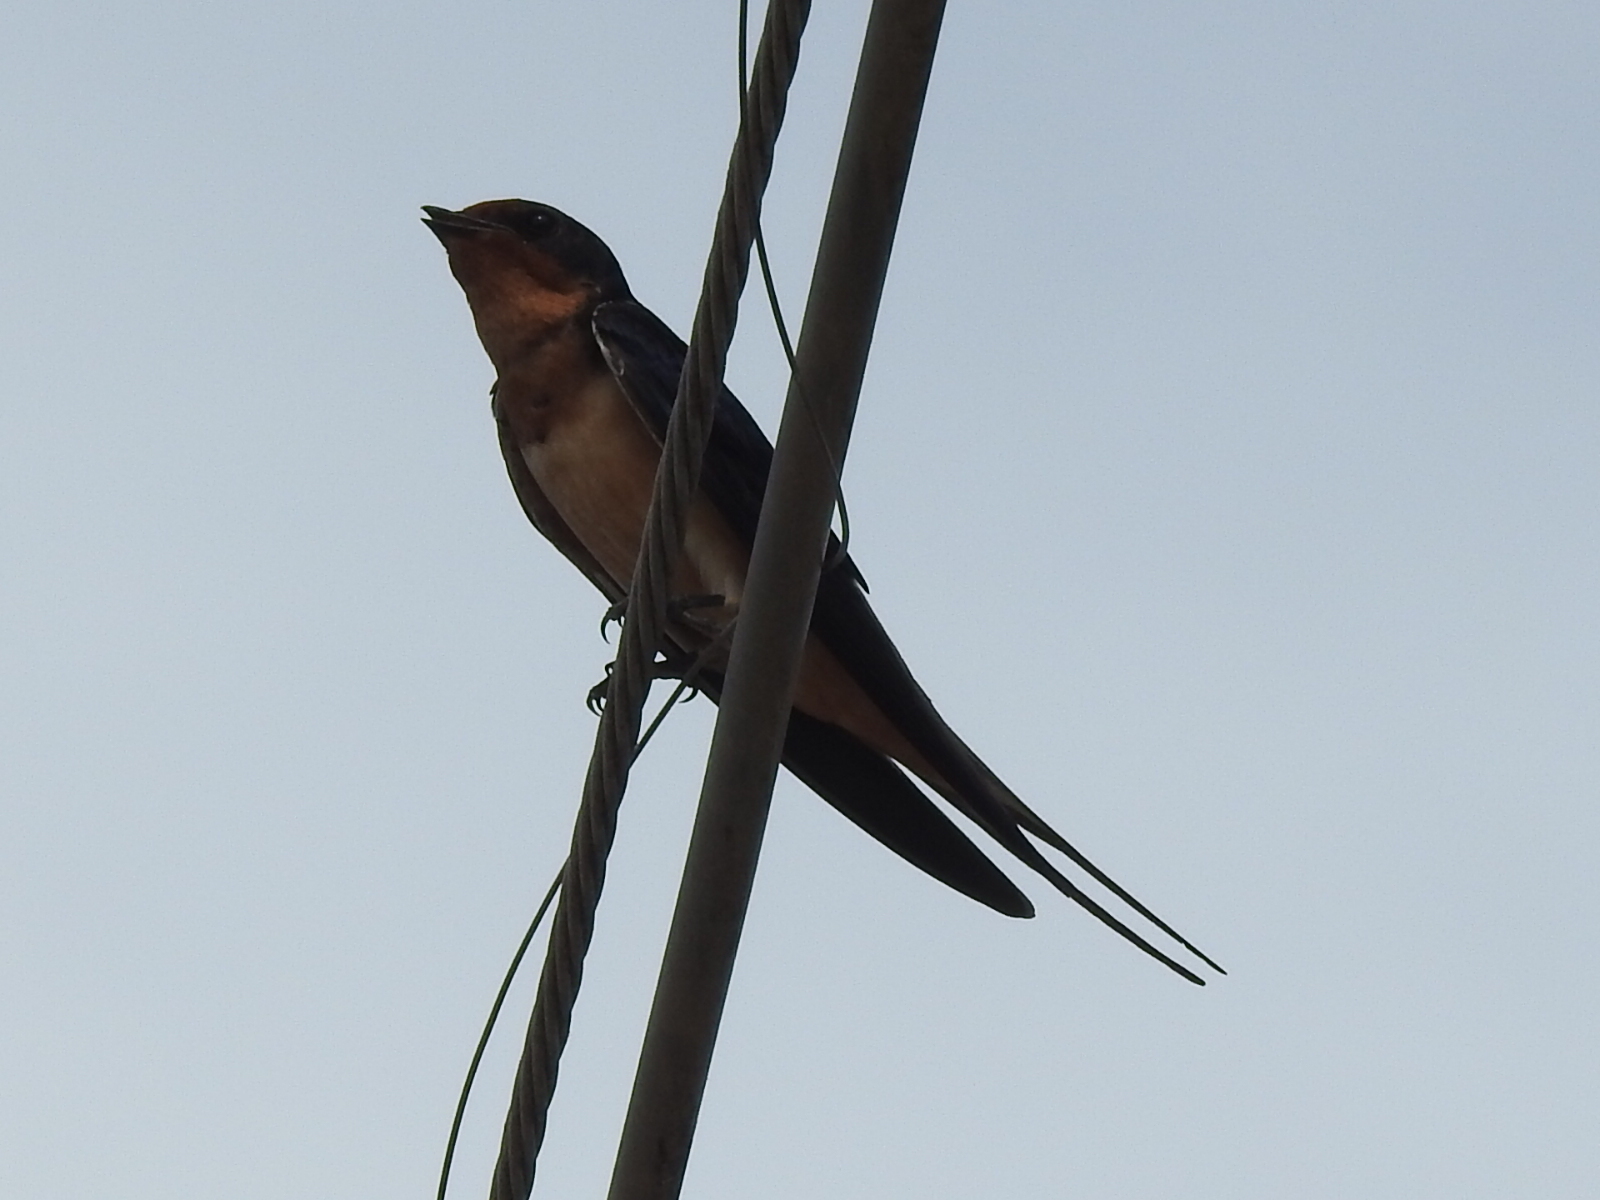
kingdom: Animalia
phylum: Chordata
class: Aves
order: Passeriformes
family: Hirundinidae
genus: Hirundo
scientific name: Hirundo rustica
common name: Barn swallow
